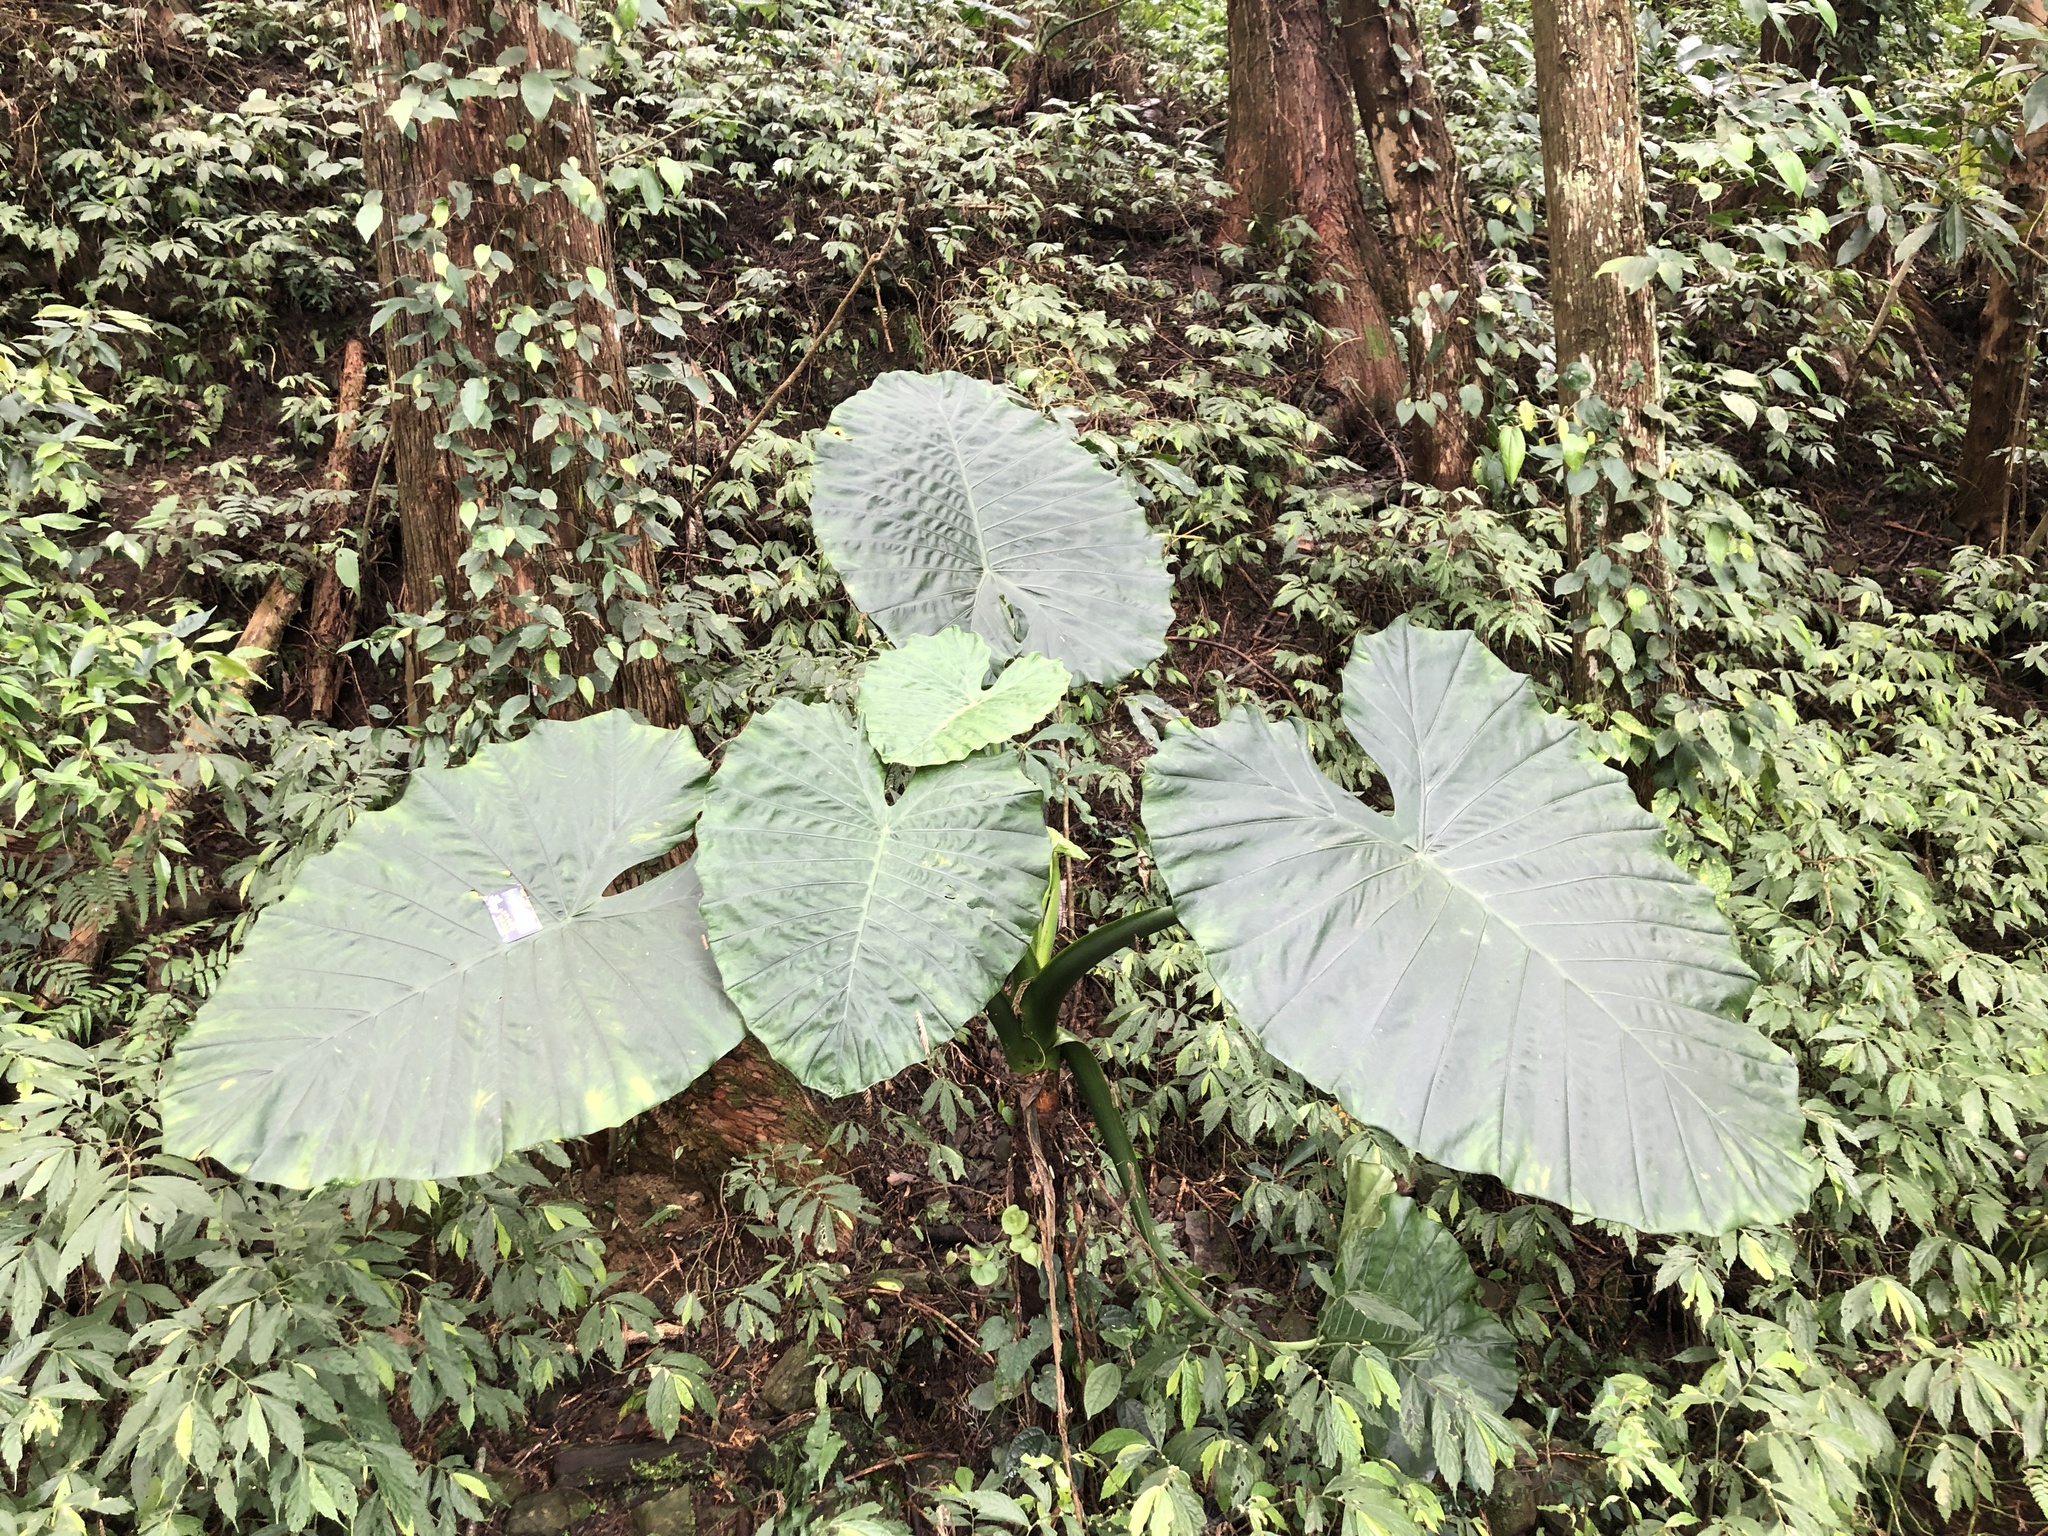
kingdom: Plantae
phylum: Tracheophyta
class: Liliopsida
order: Alismatales
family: Araceae
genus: Alocasia
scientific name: Alocasia odora
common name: Asian taro
